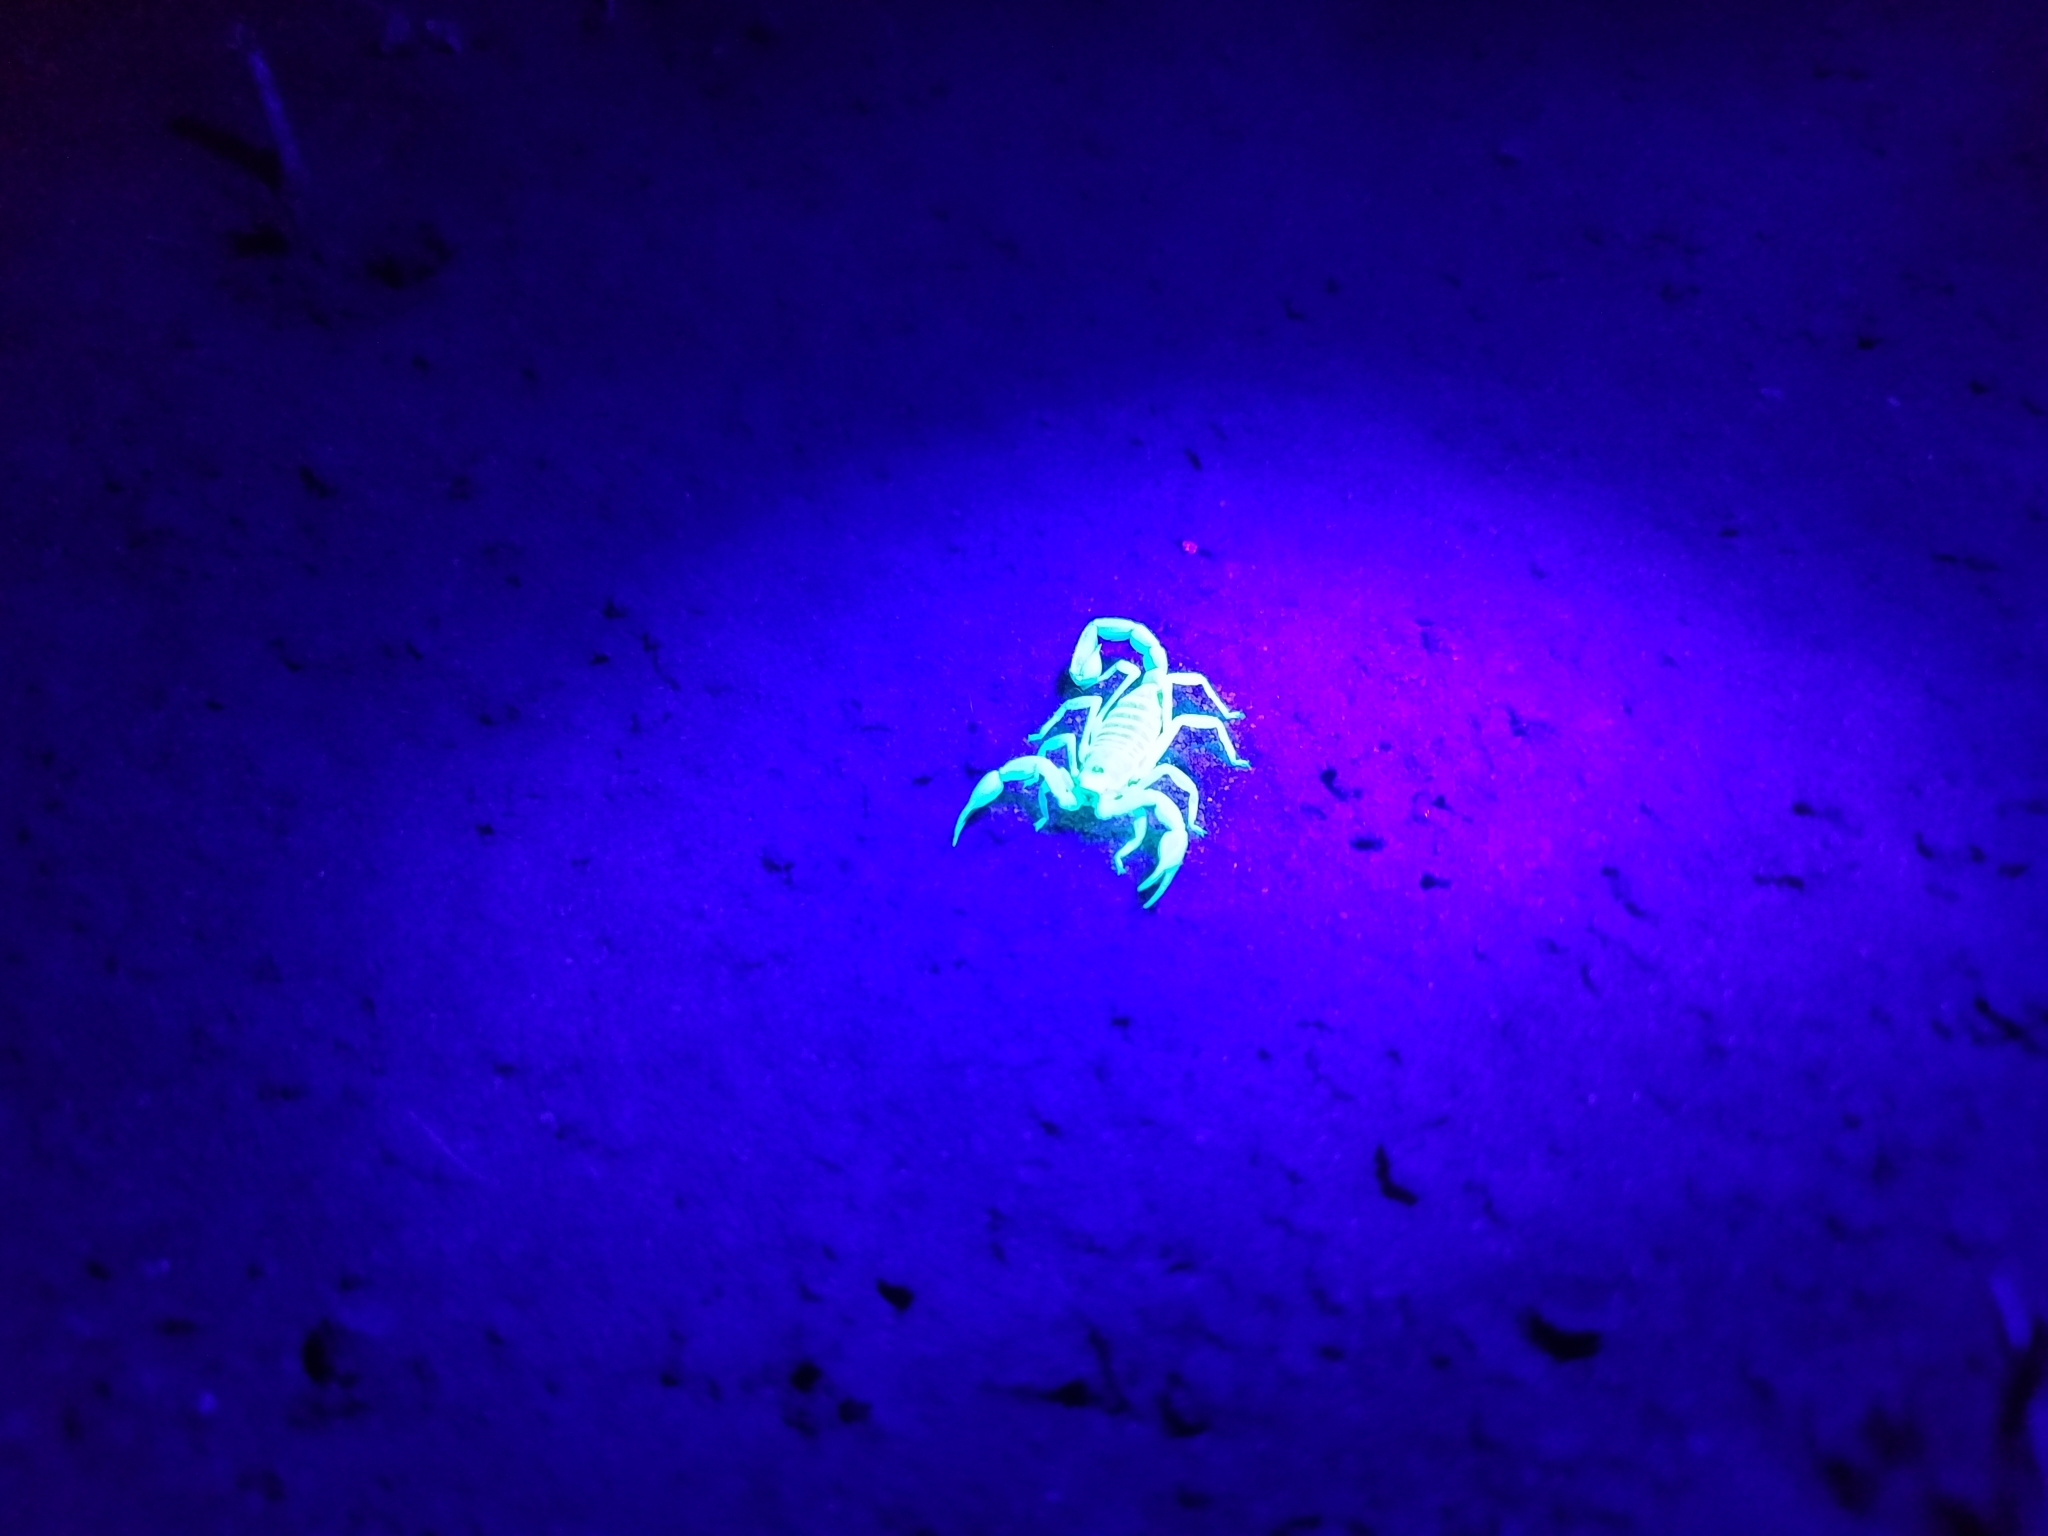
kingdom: Animalia
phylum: Arthropoda
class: Arachnida
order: Scorpiones
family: Vaejovidae
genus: Paravaejovis
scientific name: Paravaejovis confusus
